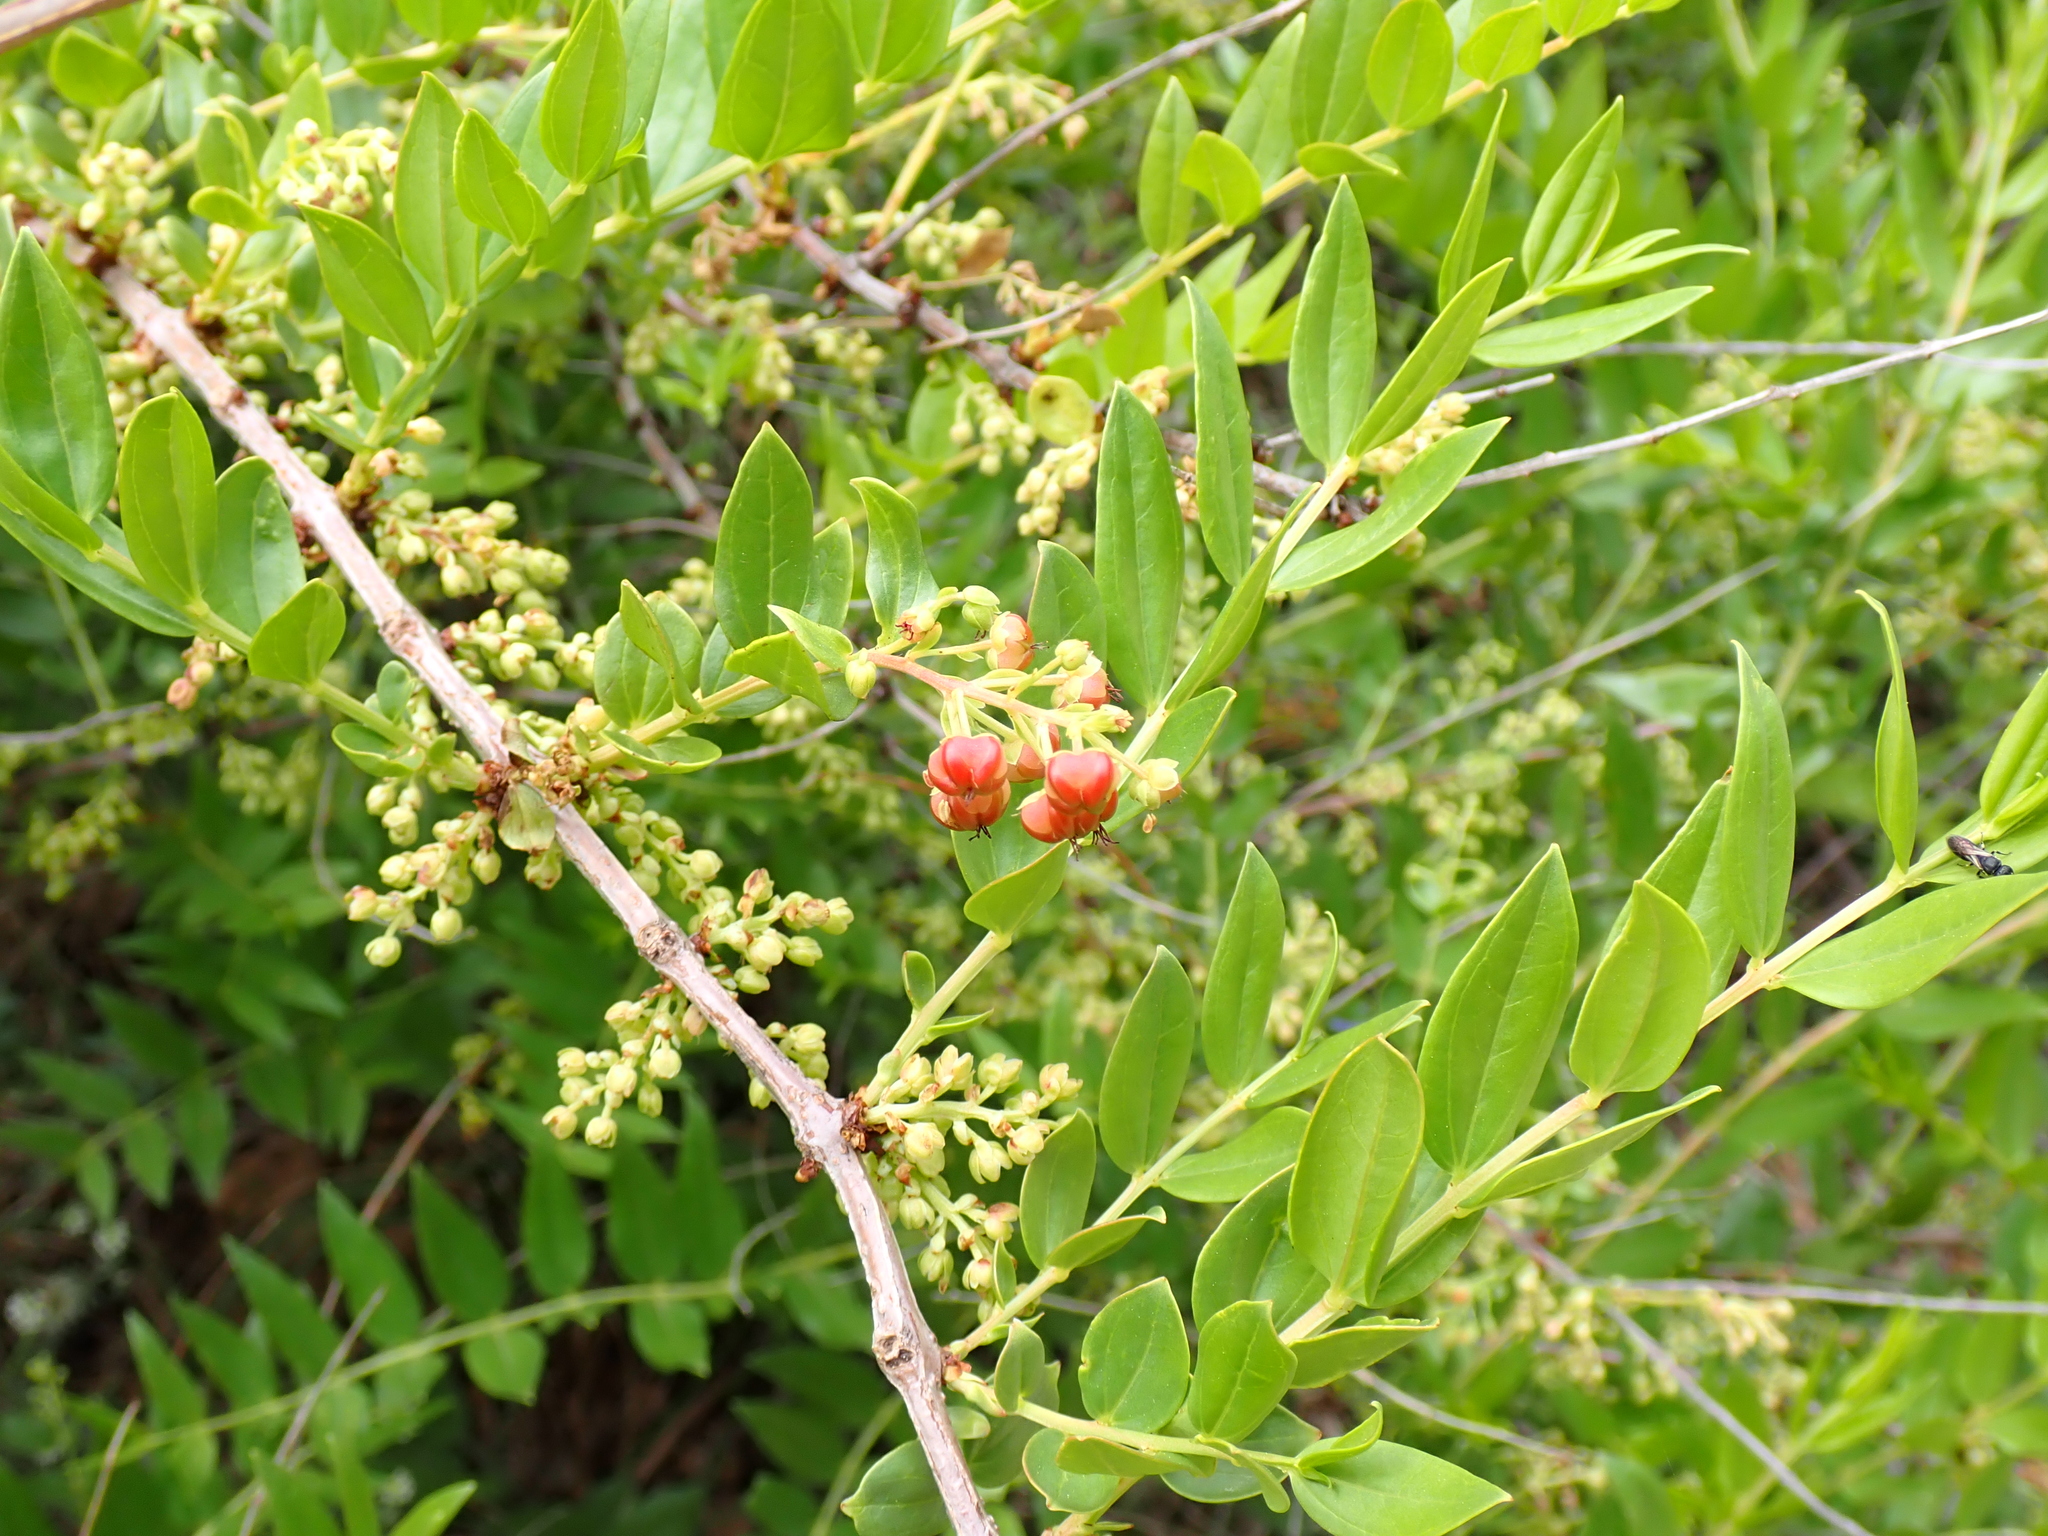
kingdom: Plantae
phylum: Tracheophyta
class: Magnoliopsida
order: Cucurbitales
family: Coriariaceae
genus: Coriaria
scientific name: Coriaria myrtifolia
